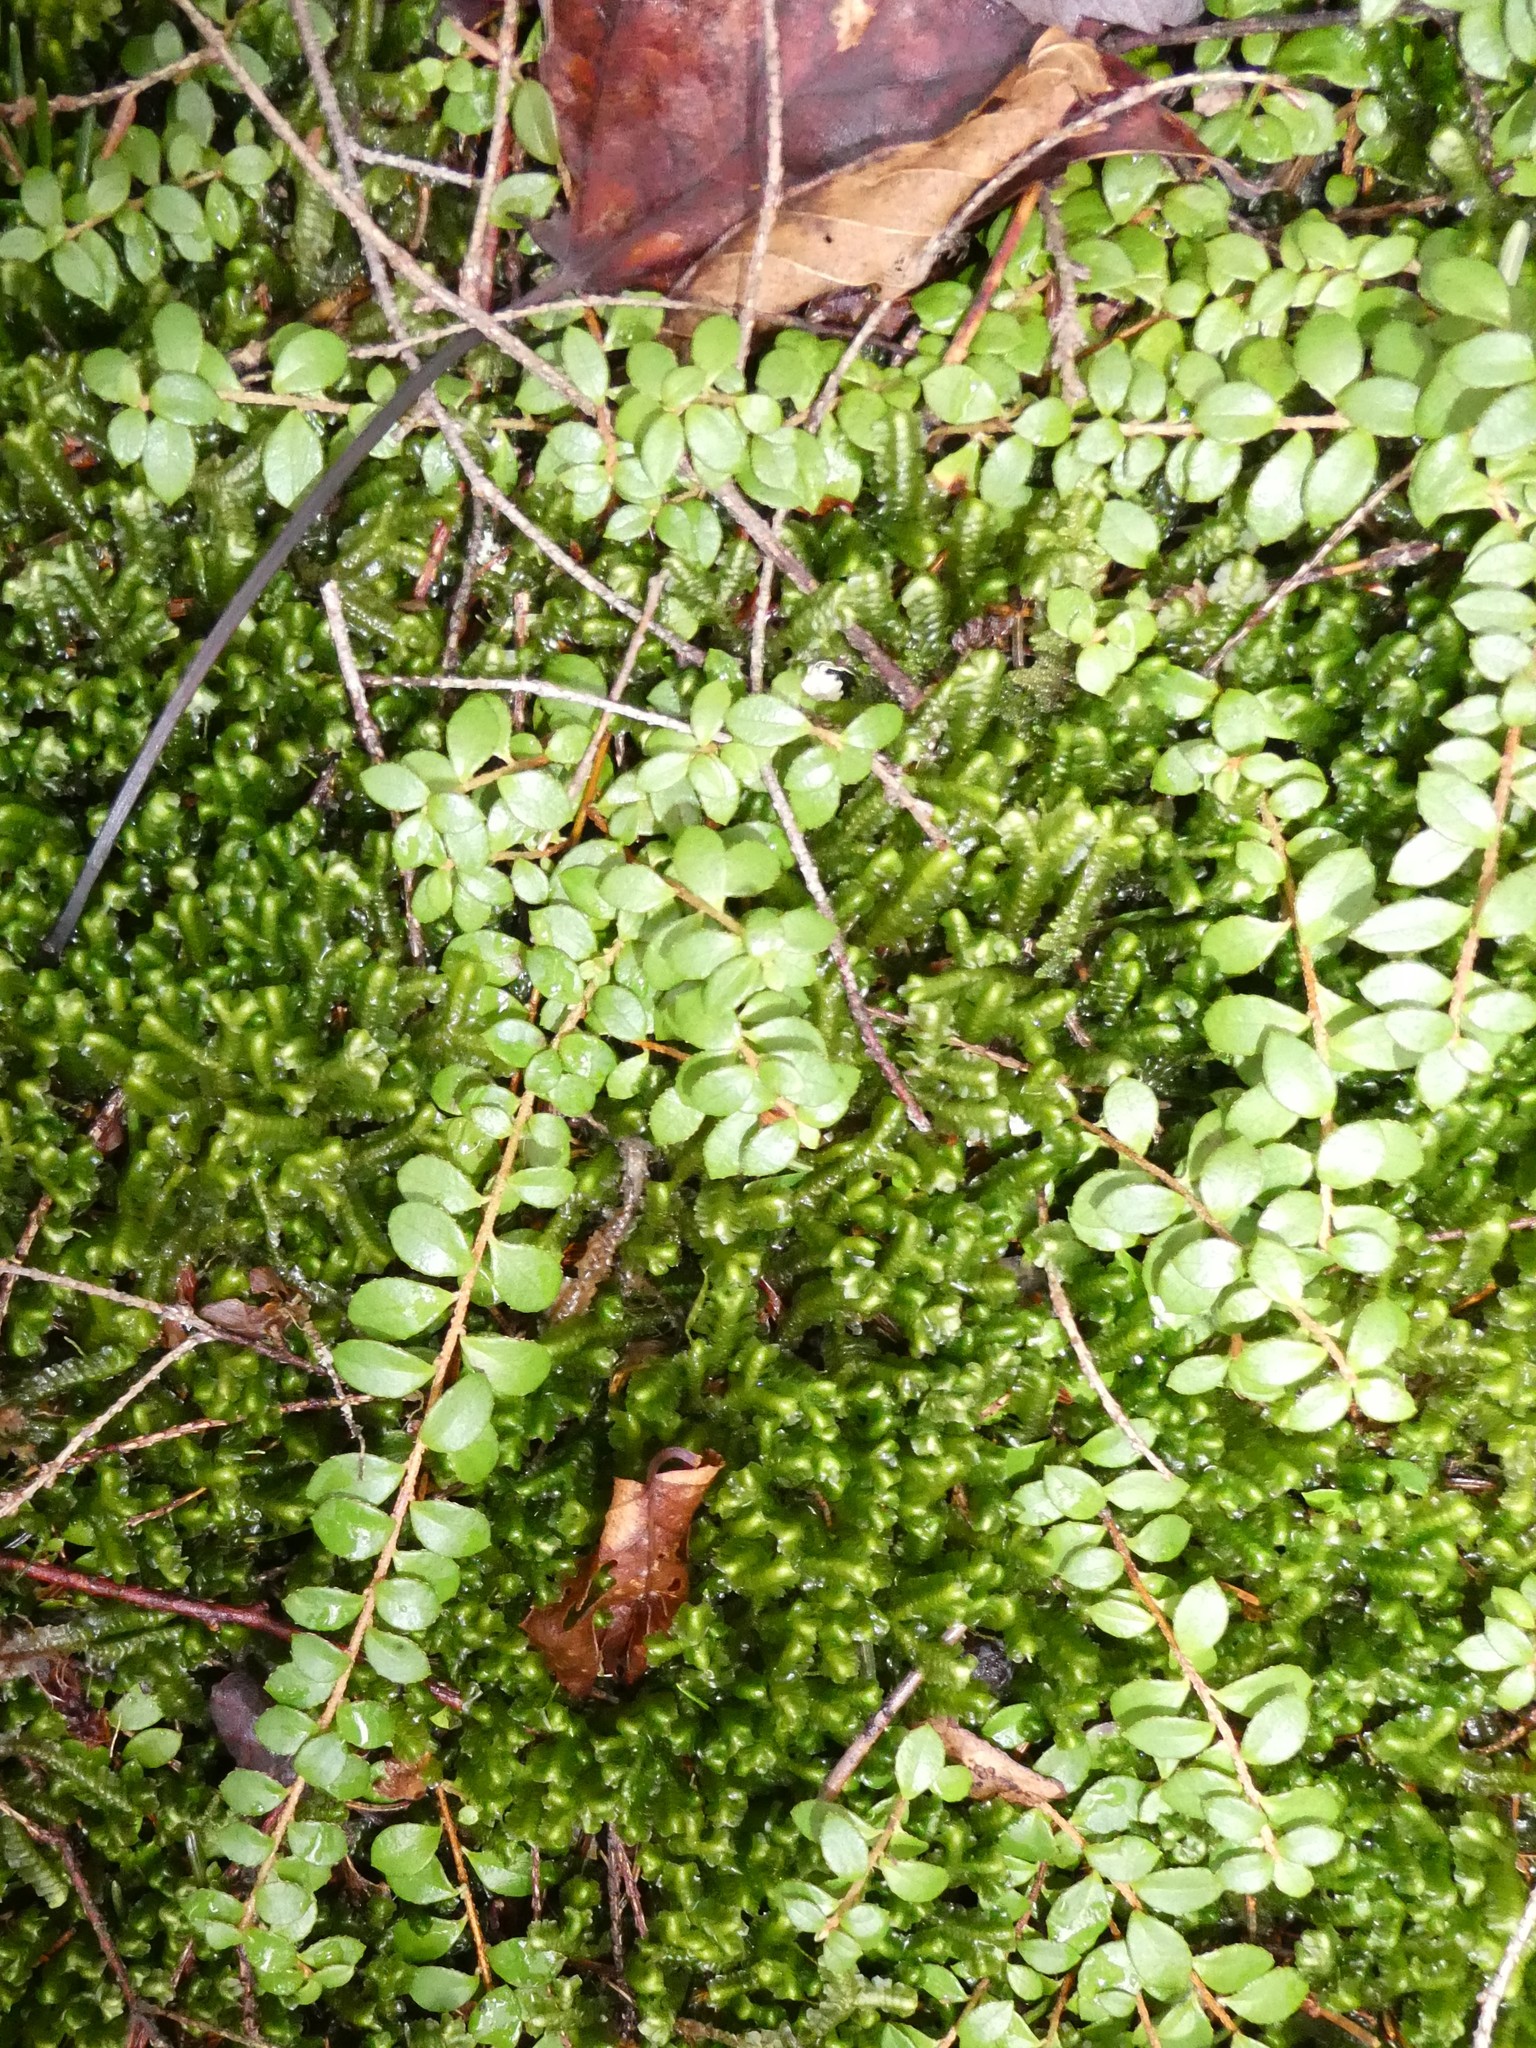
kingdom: Plantae
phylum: Tracheophyta
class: Magnoliopsida
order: Ericales
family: Ericaceae
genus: Gaultheria
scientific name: Gaultheria hispidula
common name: Cancer wintergreen
